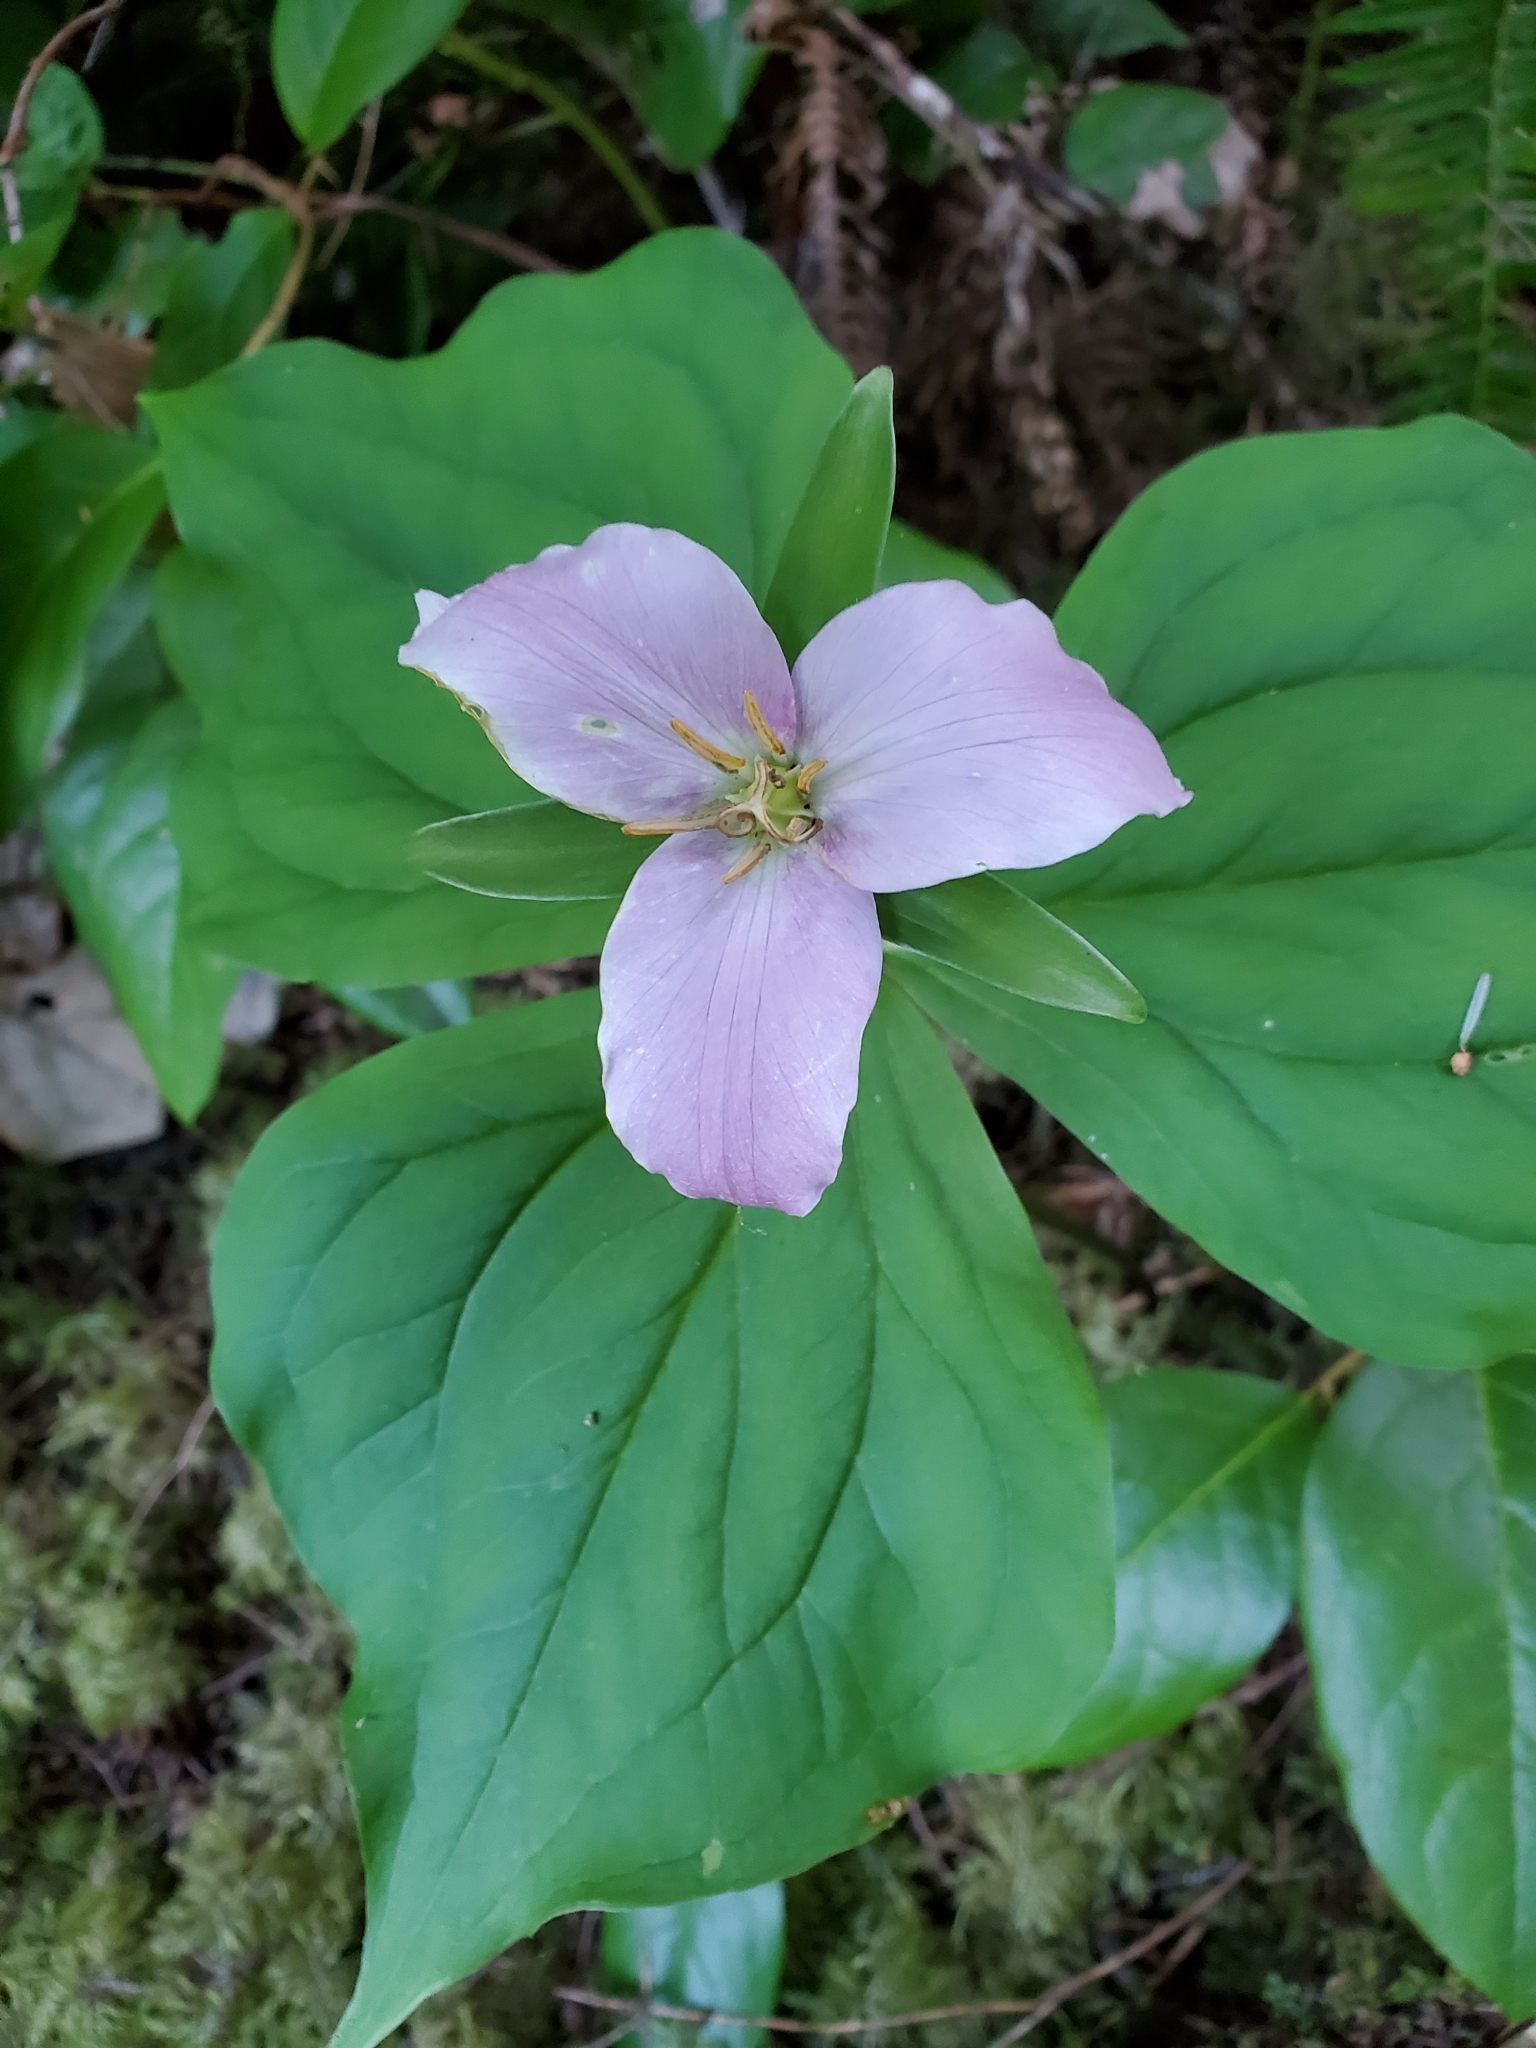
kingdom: Plantae
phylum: Tracheophyta
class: Liliopsida
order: Liliales
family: Melanthiaceae
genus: Trillium
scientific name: Trillium ovatum
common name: Pacific trillium
